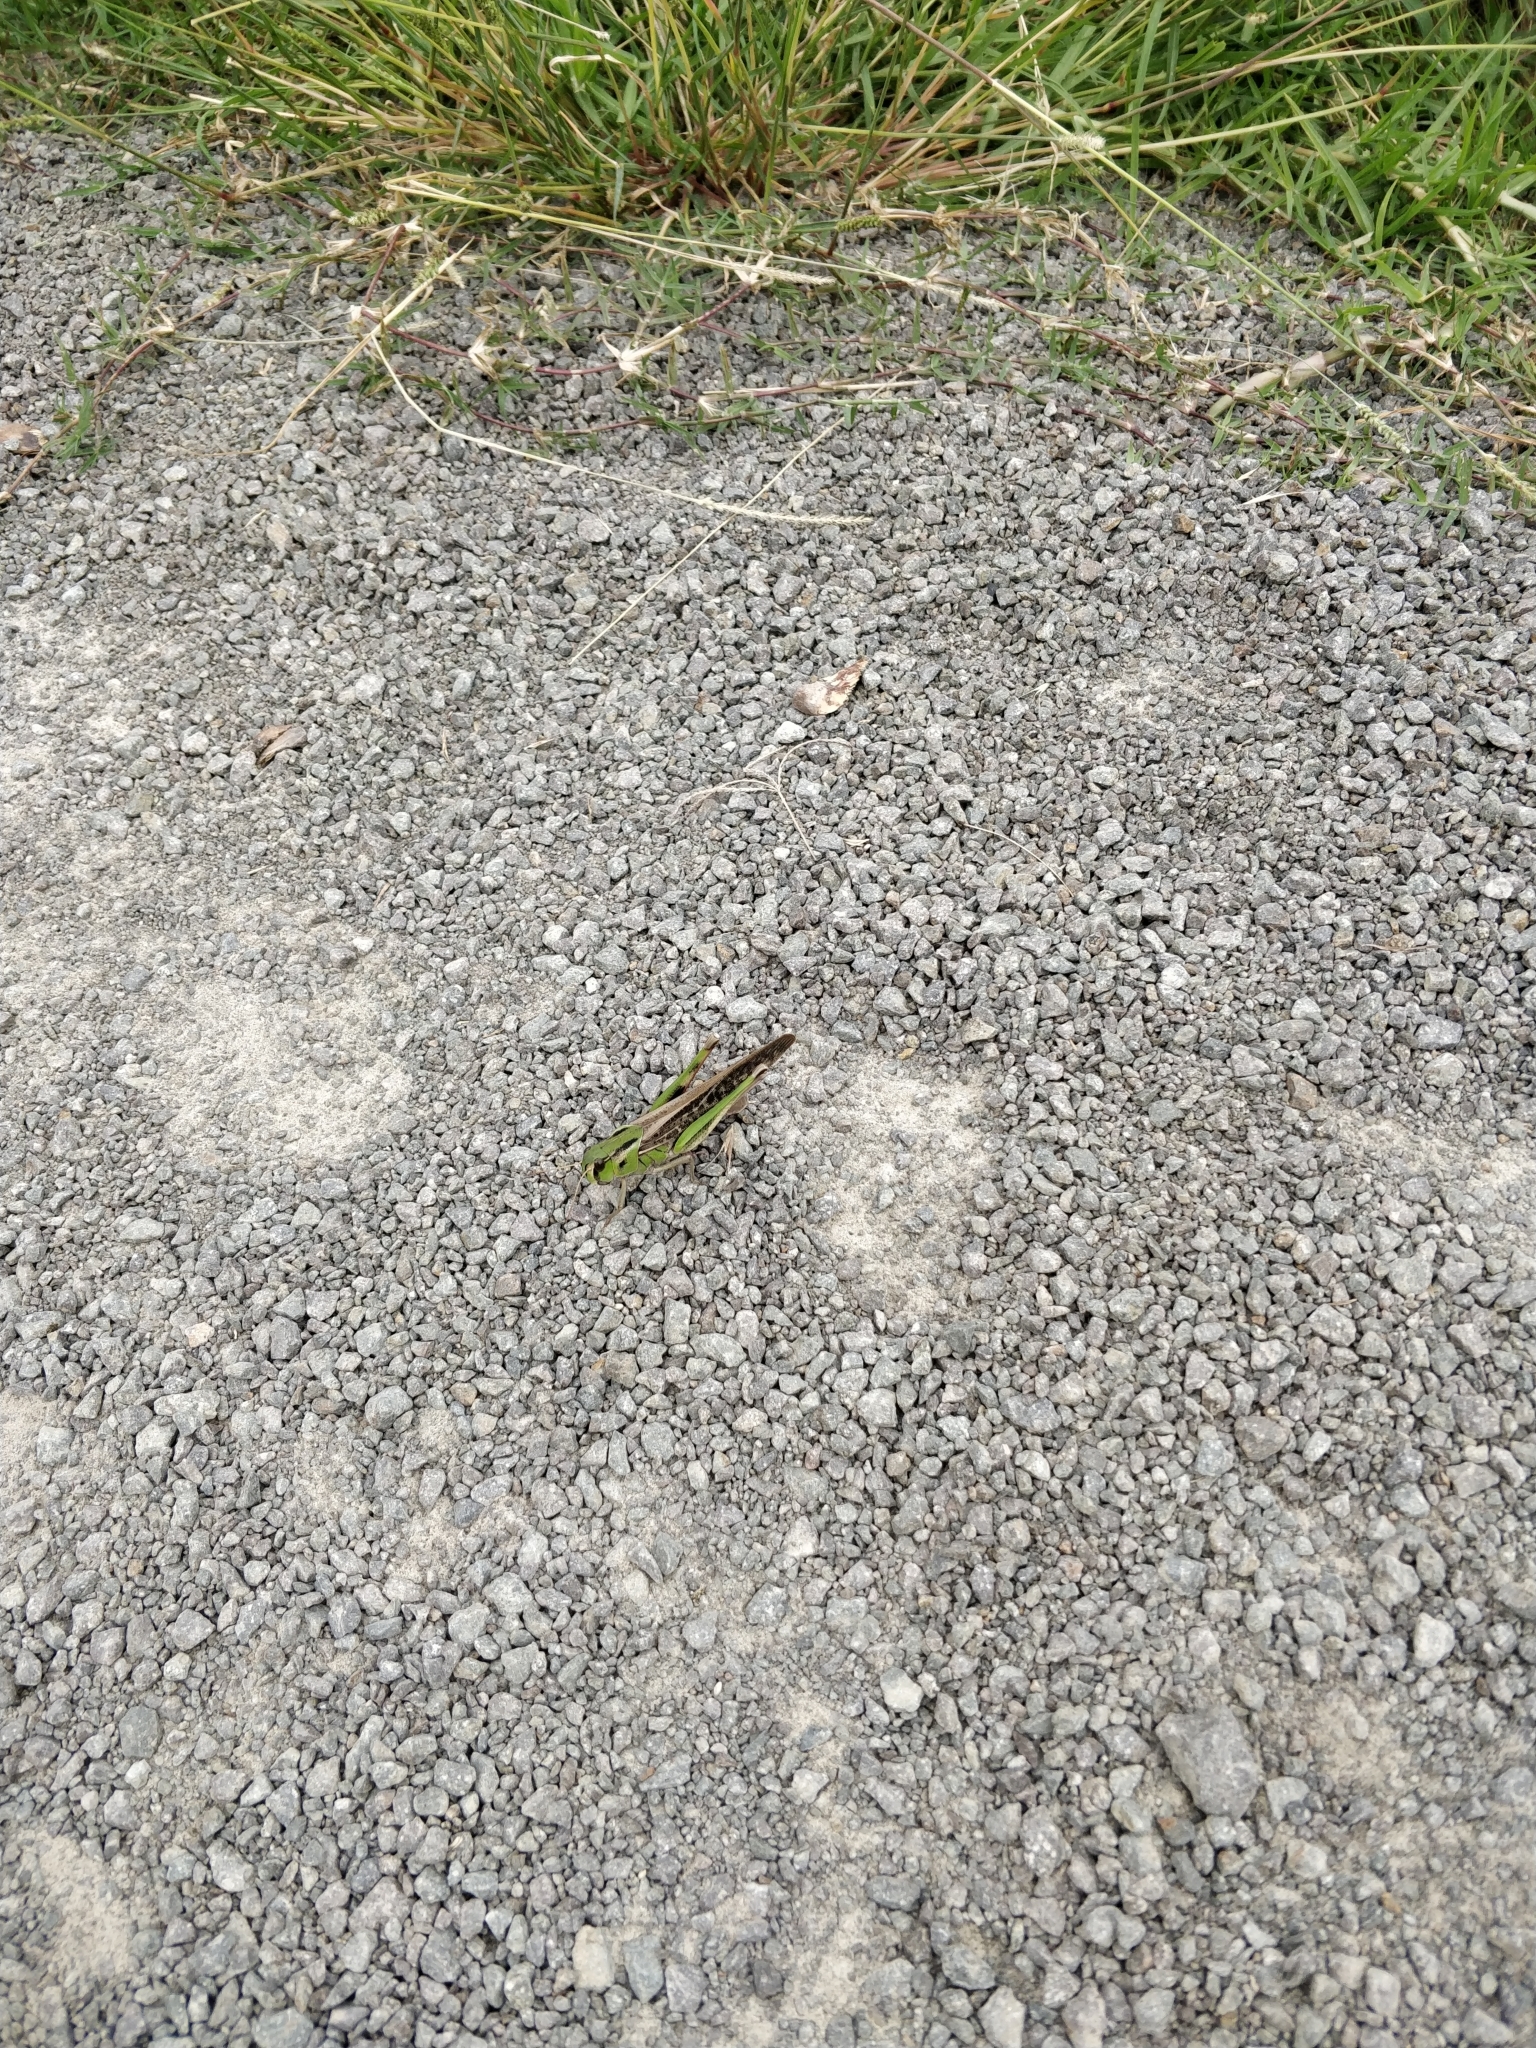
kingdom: Animalia
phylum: Arthropoda
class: Insecta
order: Orthoptera
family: Acrididae
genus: Locusta
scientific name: Locusta migratoria
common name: Migratory locust
